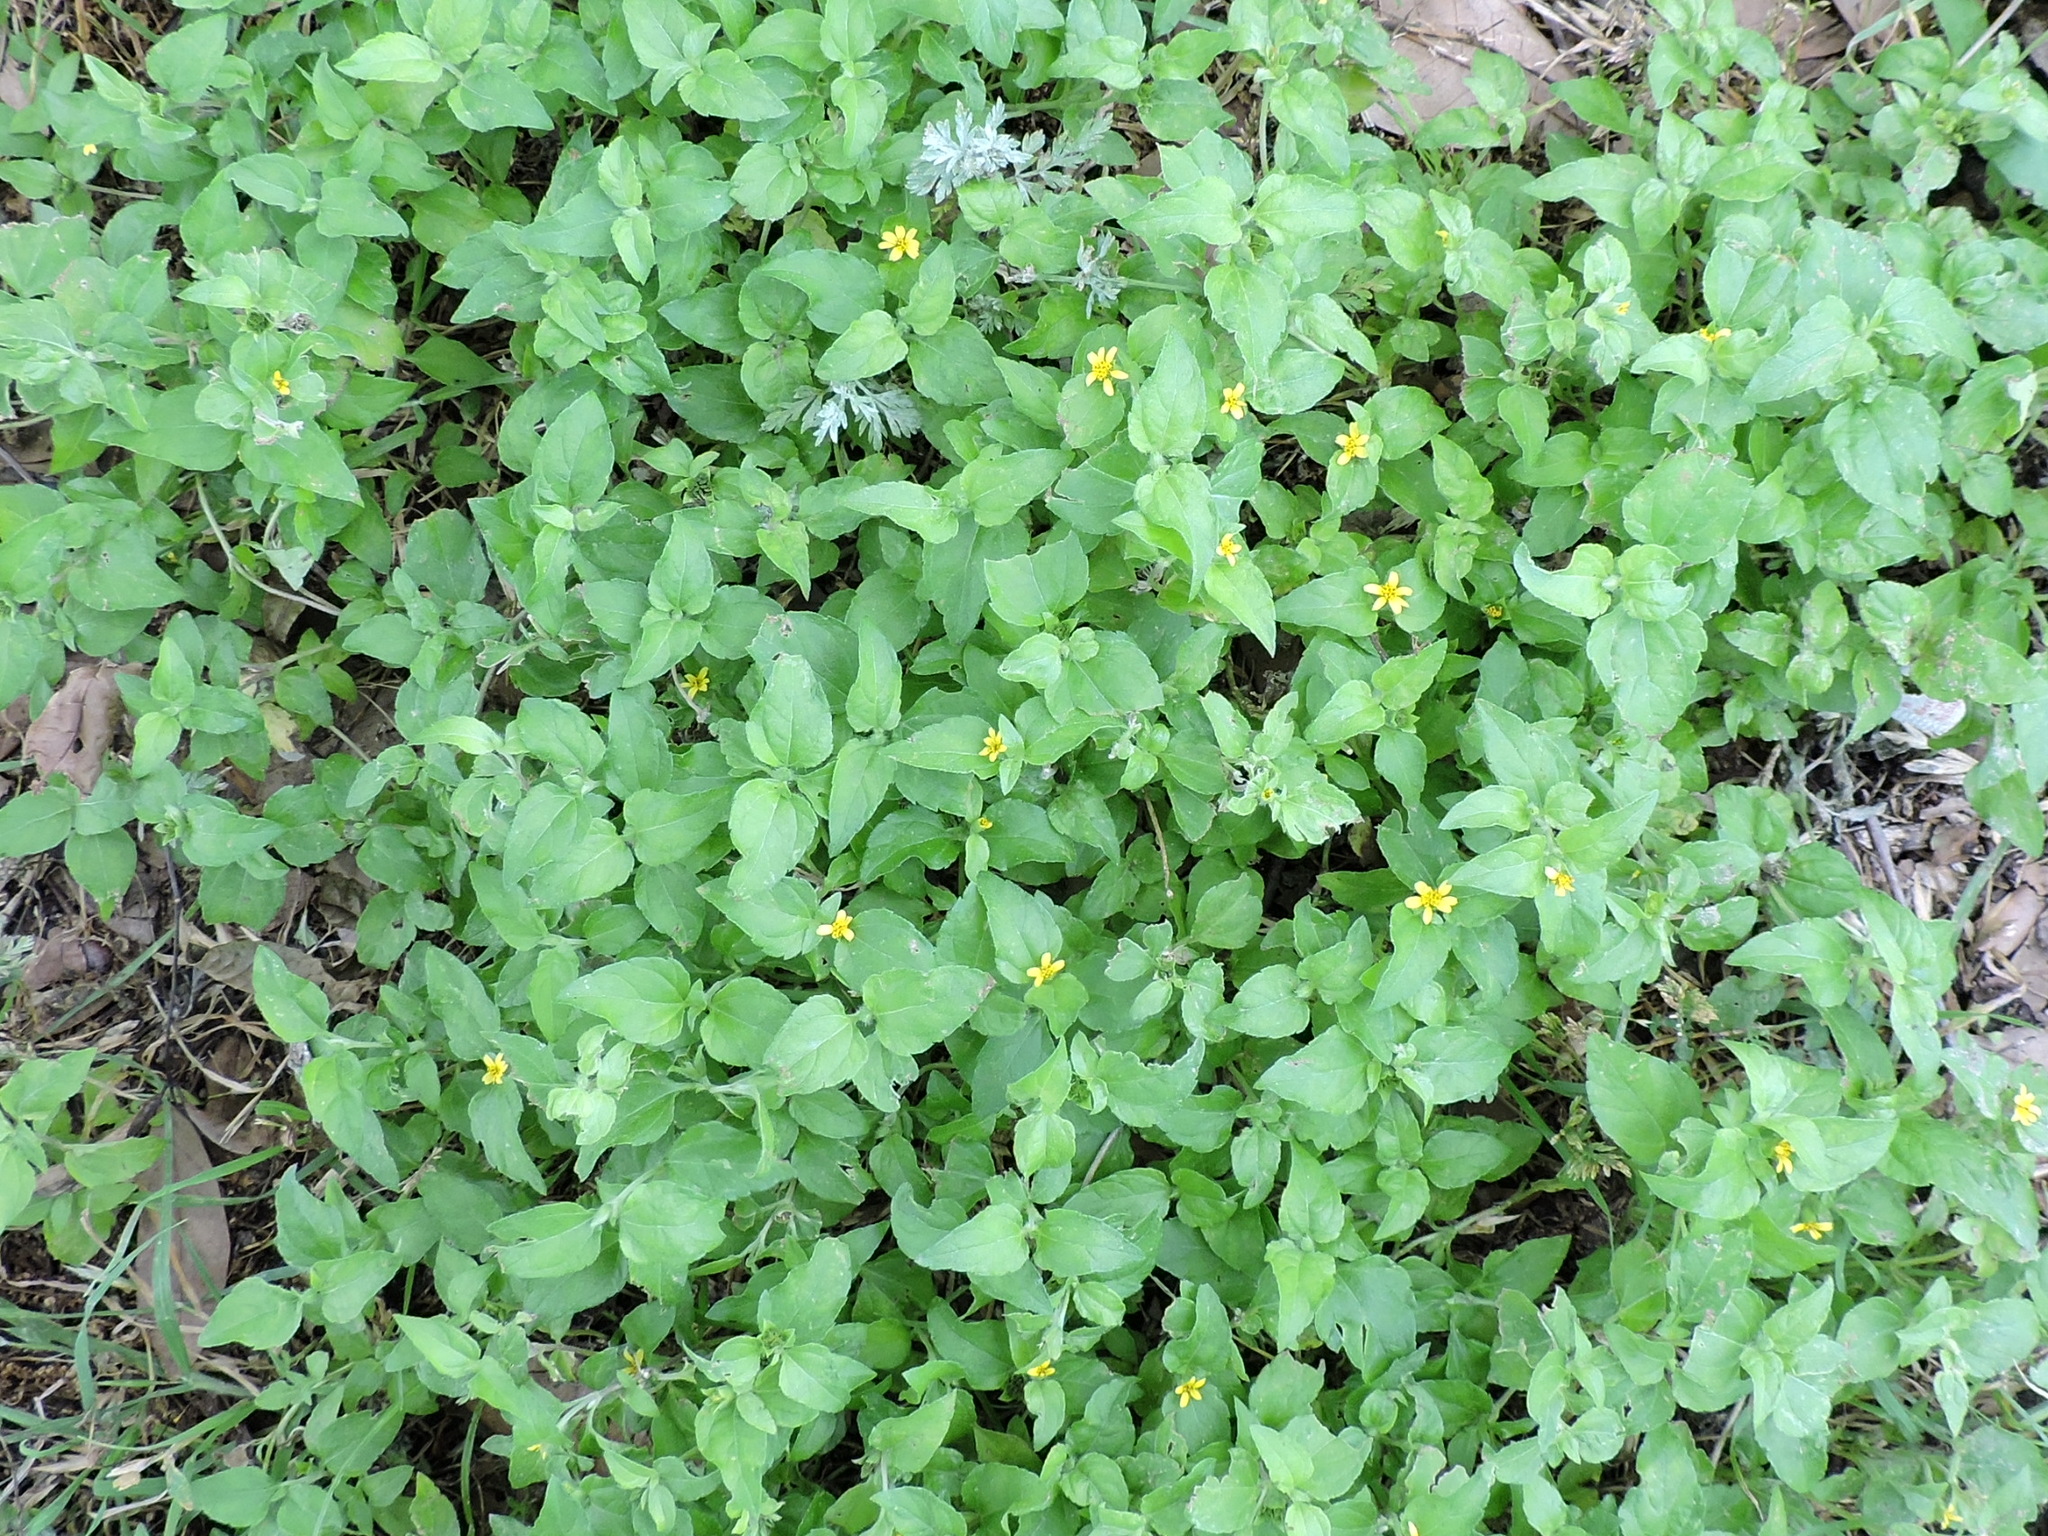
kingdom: Plantae
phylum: Tracheophyta
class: Magnoliopsida
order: Asterales
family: Asteraceae
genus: Calyptocarpus
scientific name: Calyptocarpus vialis
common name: Straggler daisy
